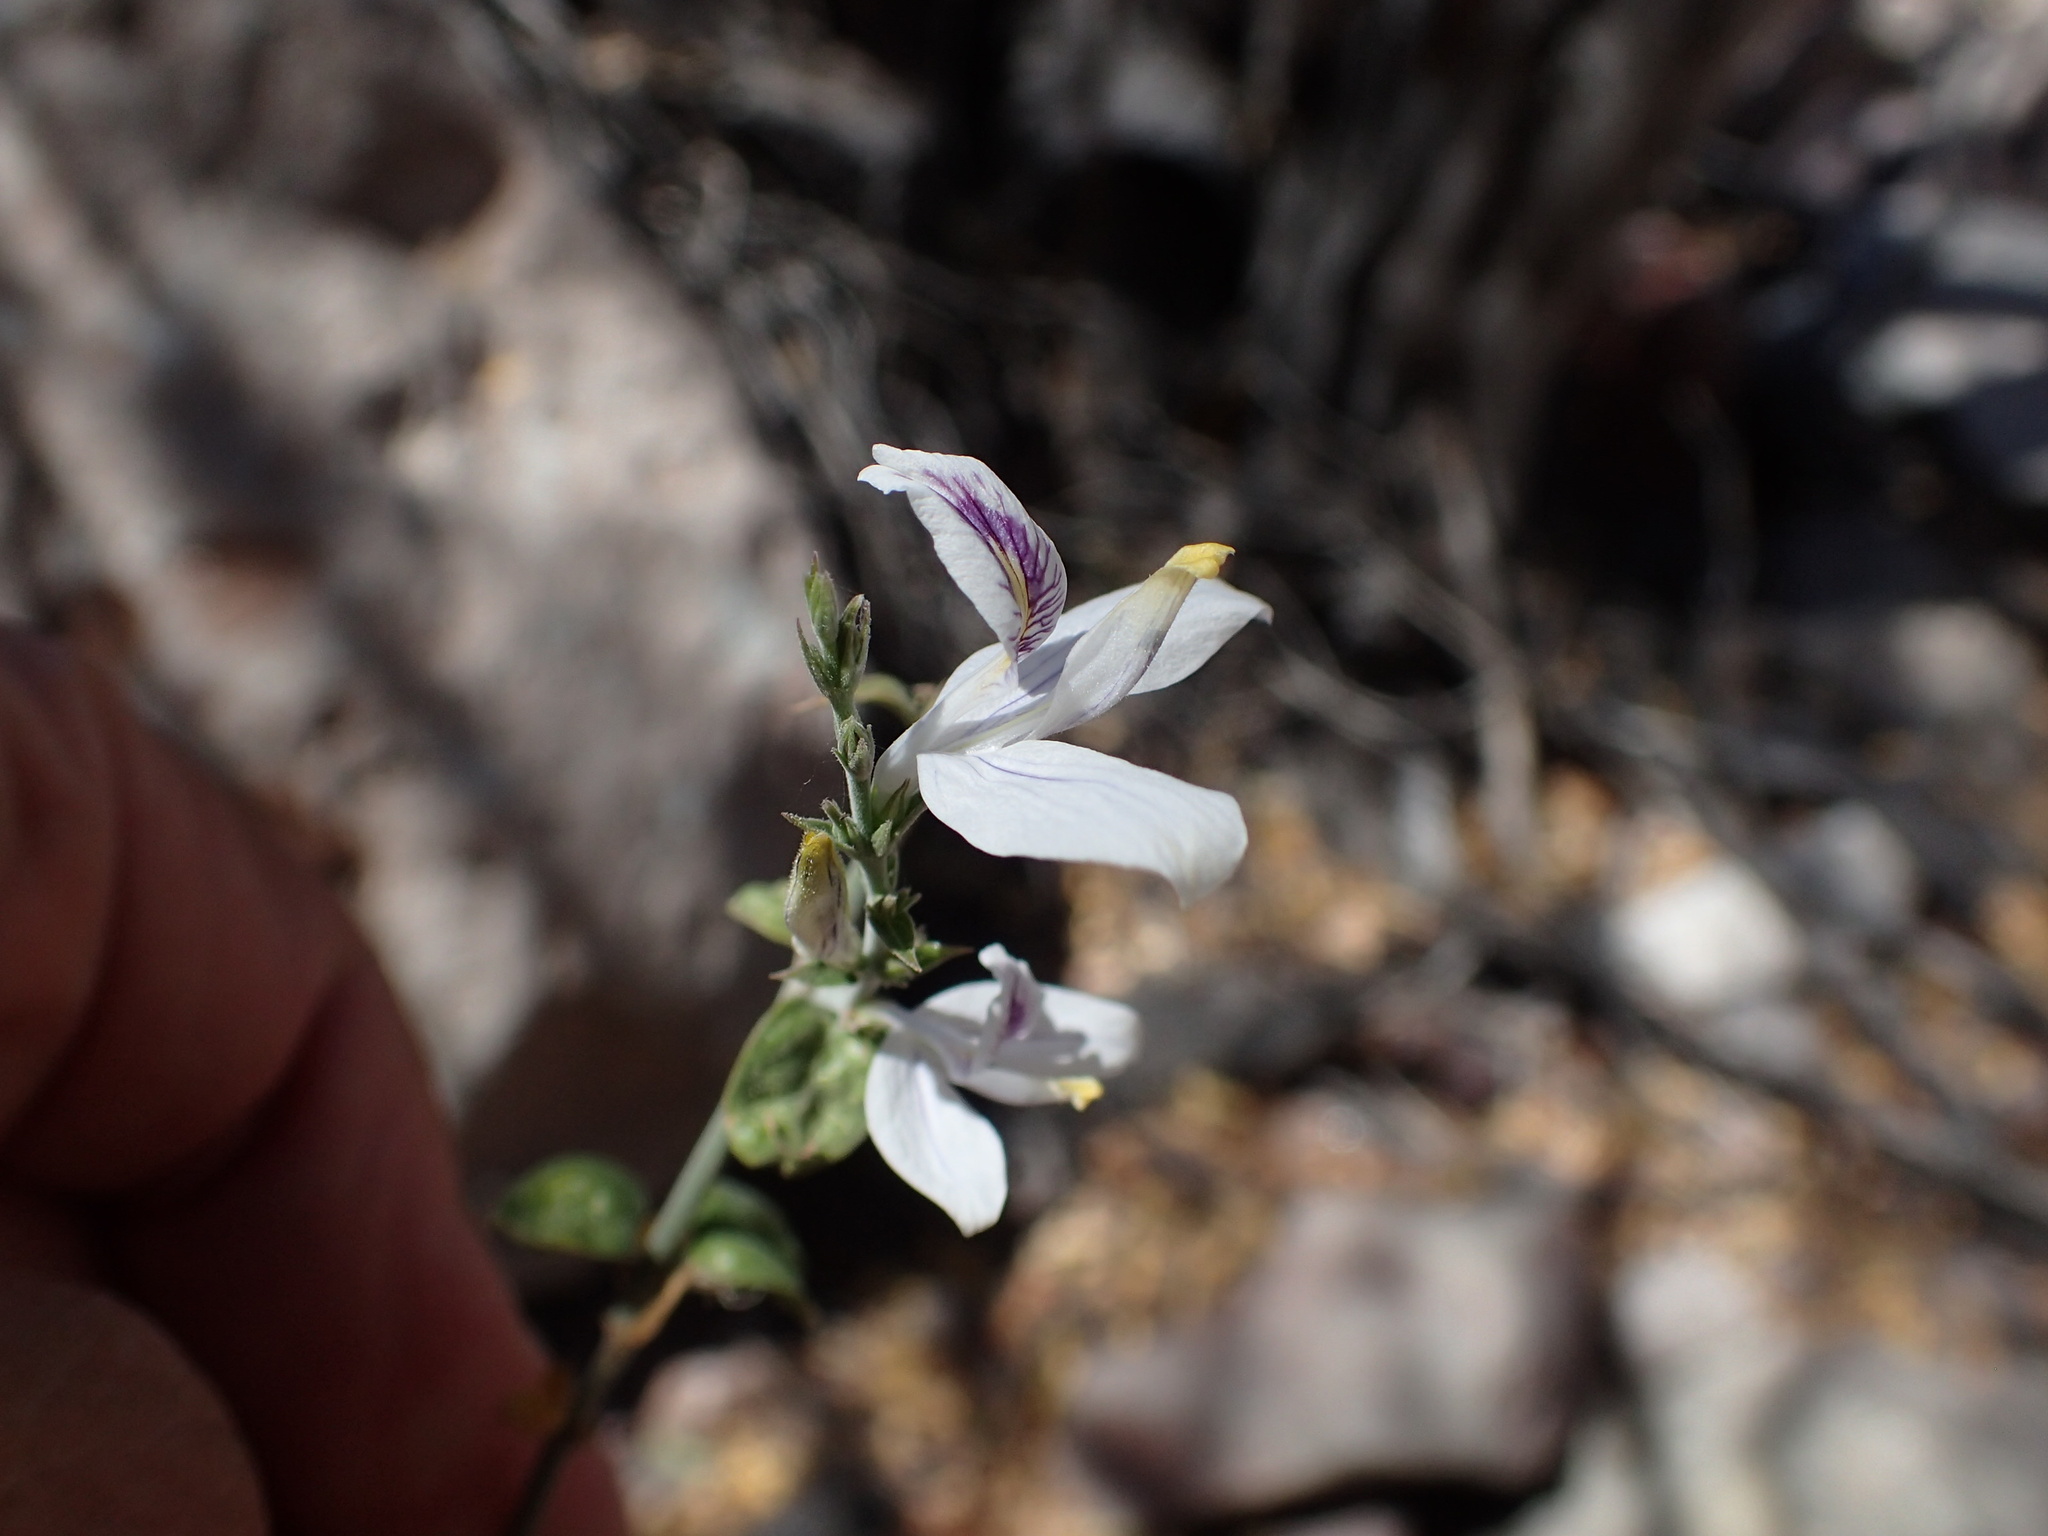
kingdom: Plantae
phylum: Tracheophyta
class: Magnoliopsida
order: Lamiales
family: Acanthaceae
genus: Carlowrightia
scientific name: Carlowrightia arizonica
